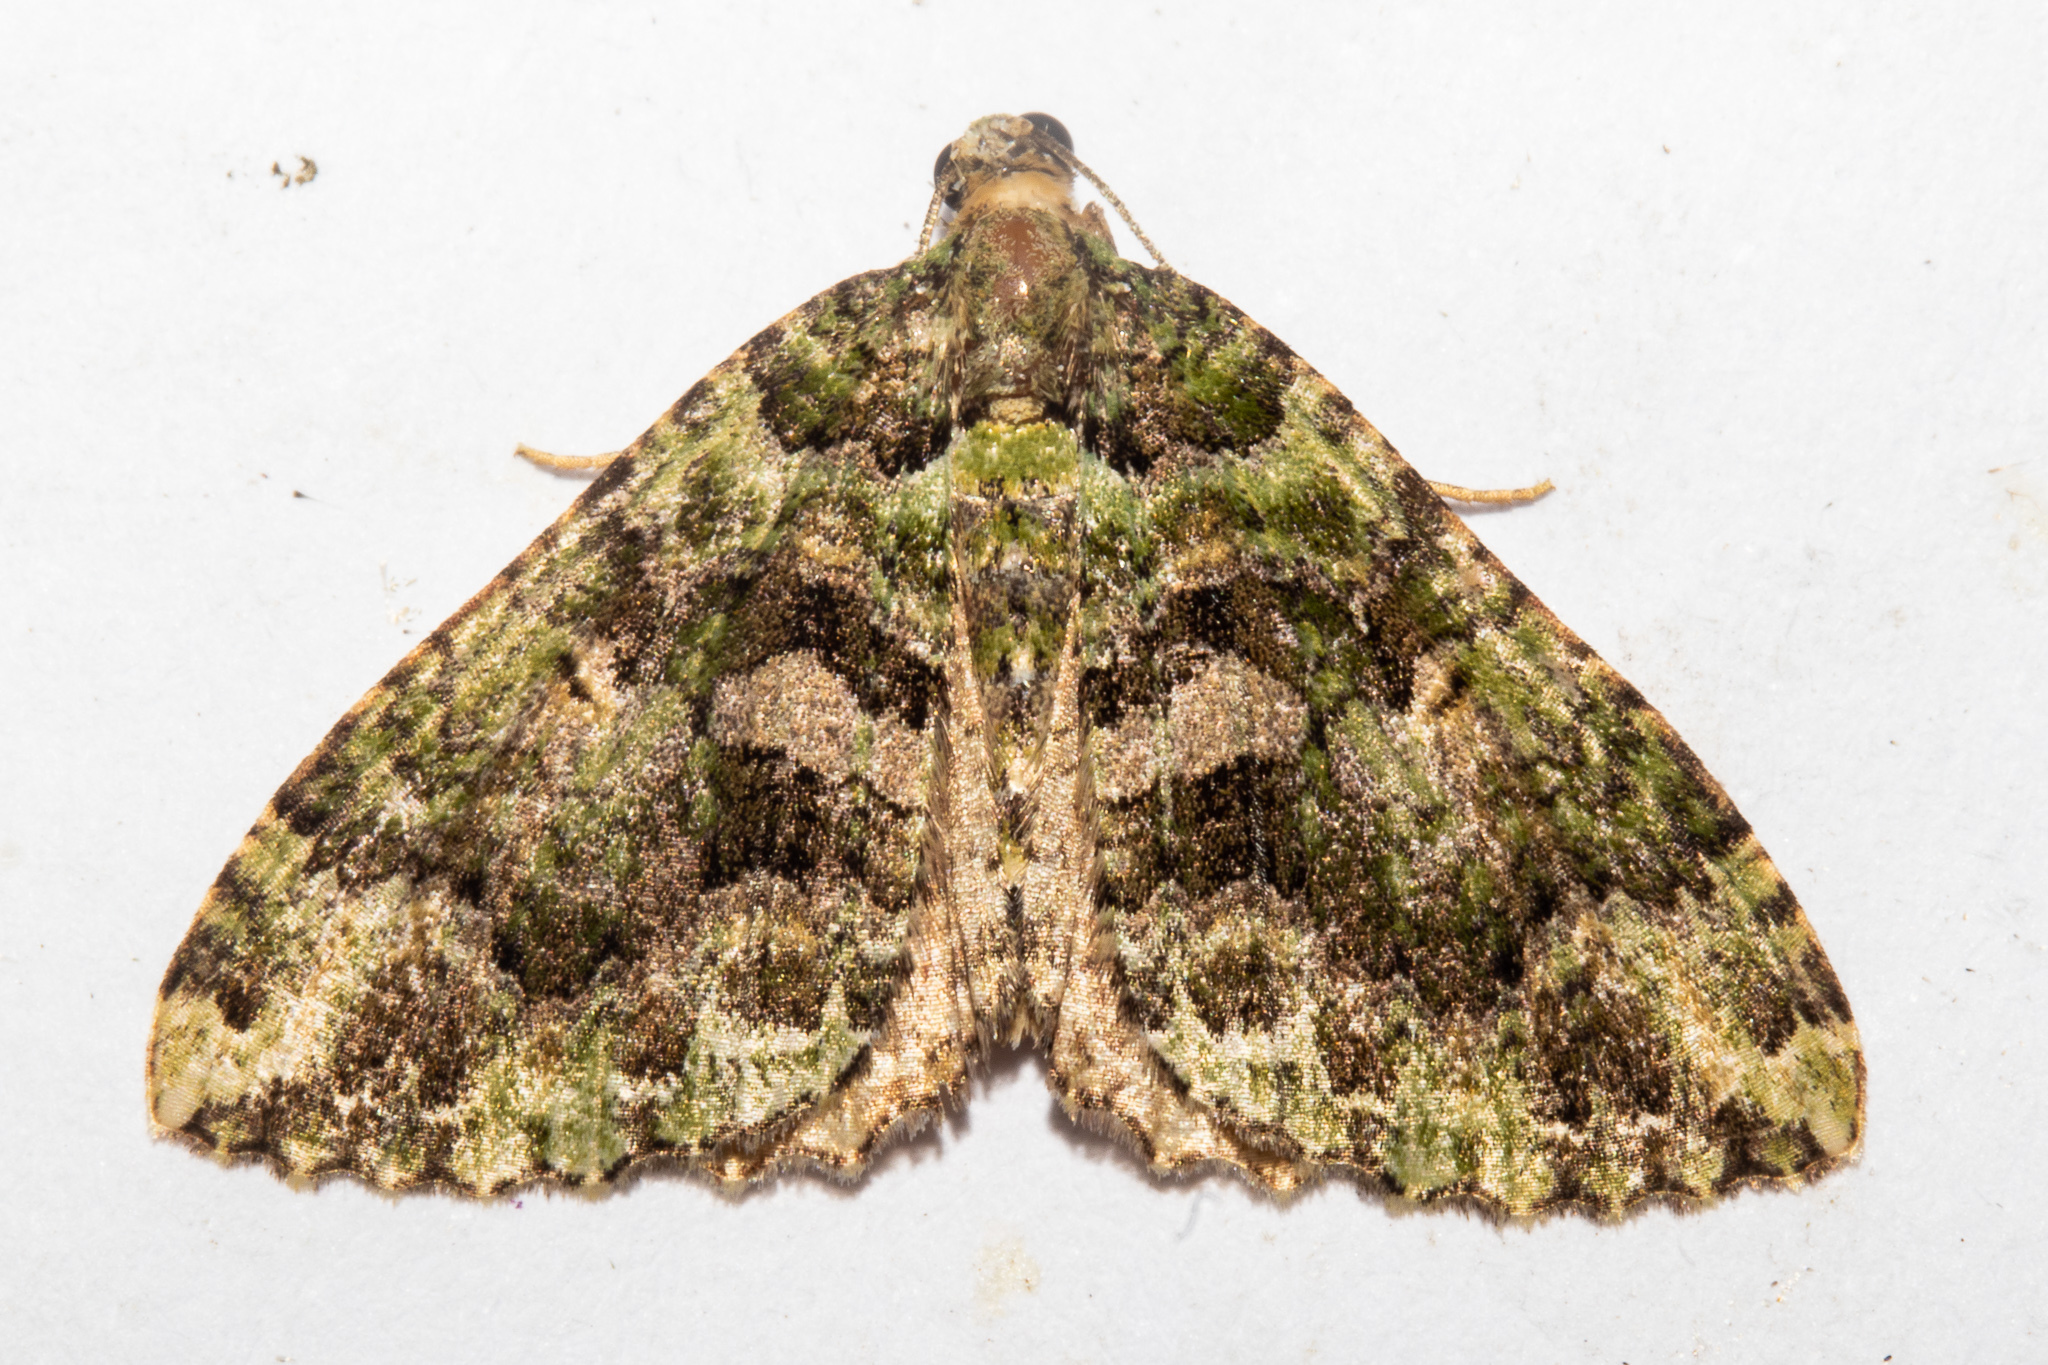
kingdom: Animalia
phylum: Arthropoda
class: Insecta
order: Lepidoptera
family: Geometridae
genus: Austrocidaria
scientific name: Austrocidaria similata
